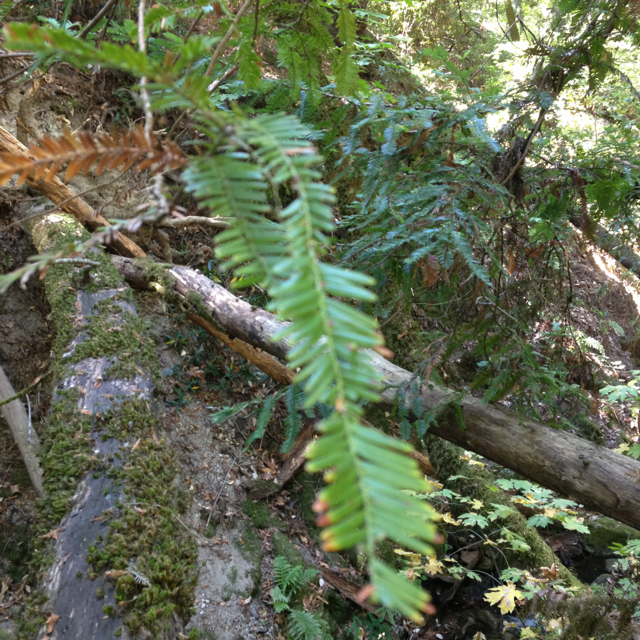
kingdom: Plantae
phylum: Tracheophyta
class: Pinopsida
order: Pinales
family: Cupressaceae
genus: Sequoia
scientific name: Sequoia sempervirens
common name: Coast redwood
